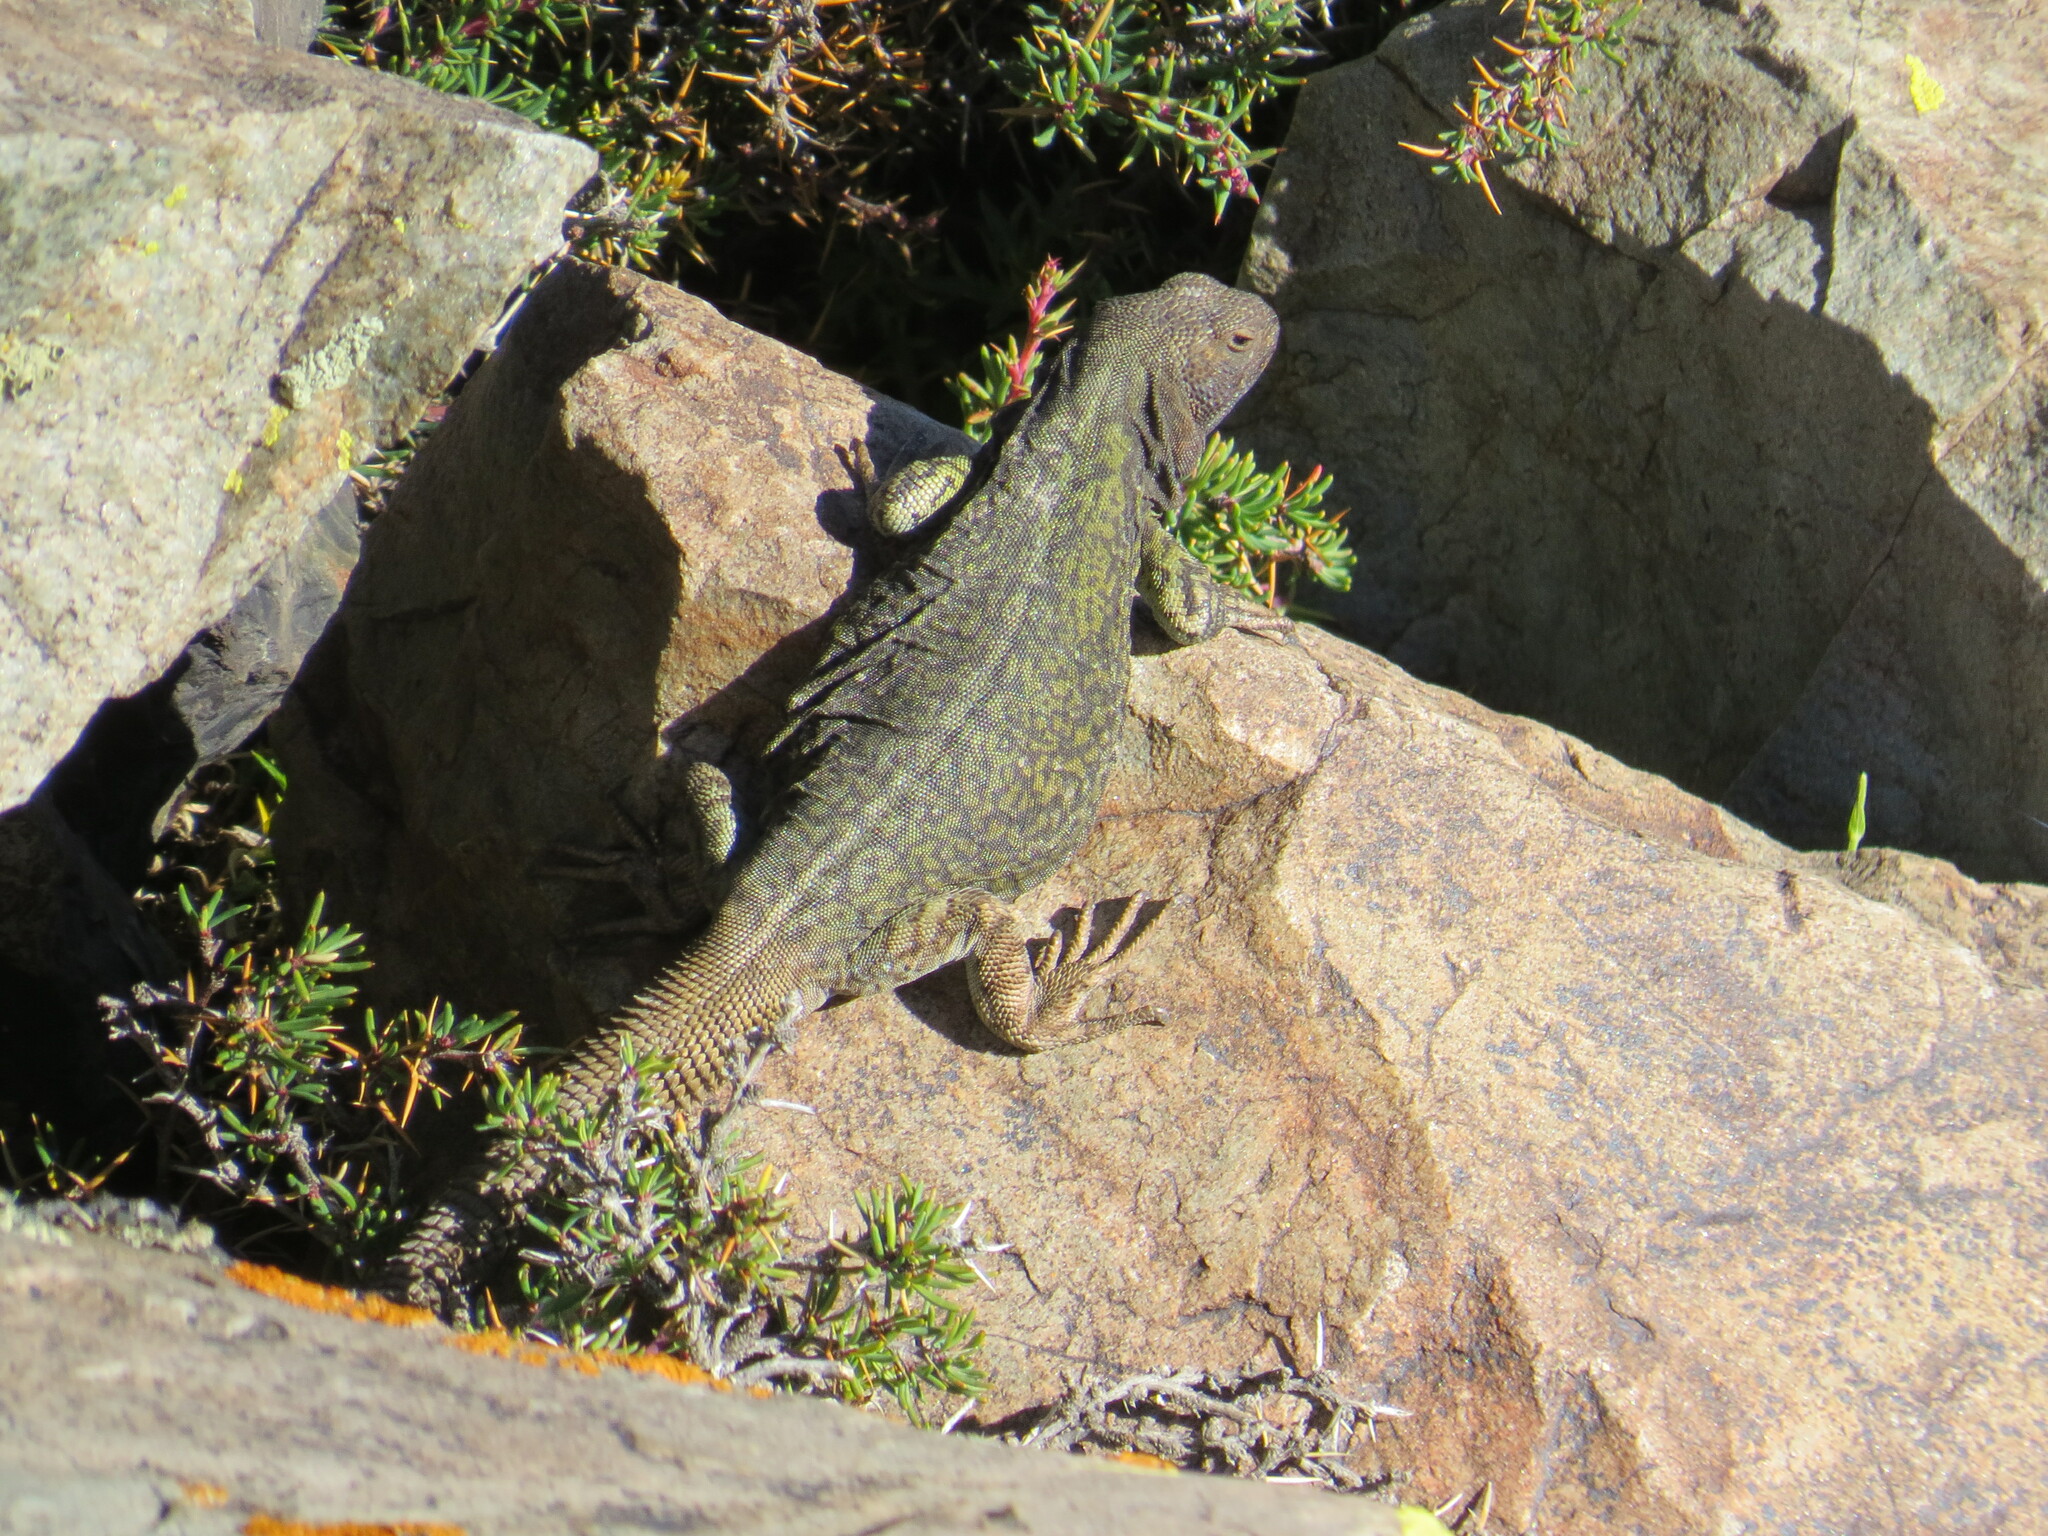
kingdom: Animalia
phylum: Chordata
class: Squamata
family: Liolaemidae
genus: Phymaturus
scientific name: Phymaturus palluma
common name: High mountain lizard
